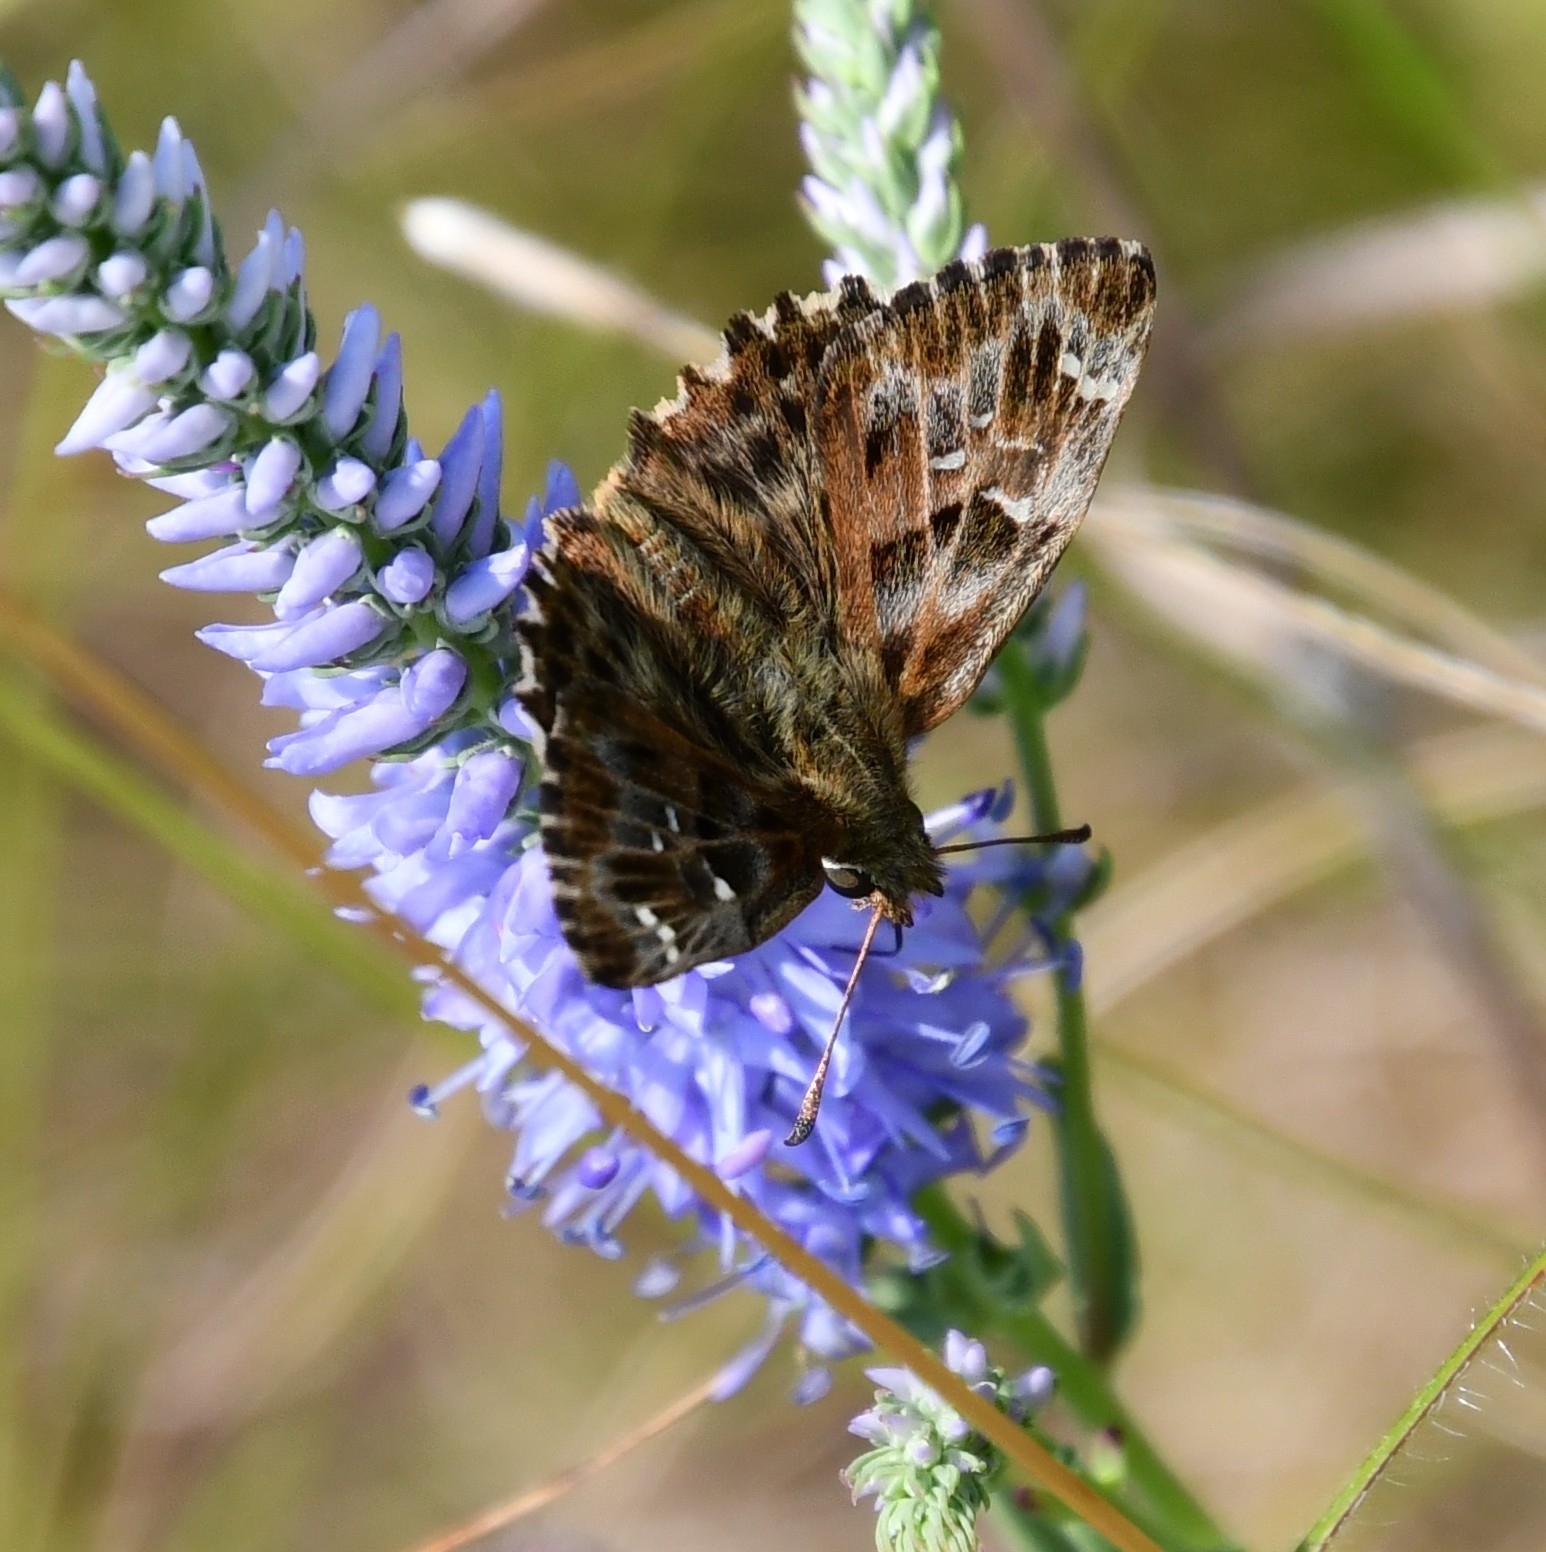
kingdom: Animalia
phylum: Arthropoda
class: Insecta
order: Lepidoptera
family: Hesperiidae
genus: Carcharodus
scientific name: Carcharodus alceae
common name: Mallow skipper
